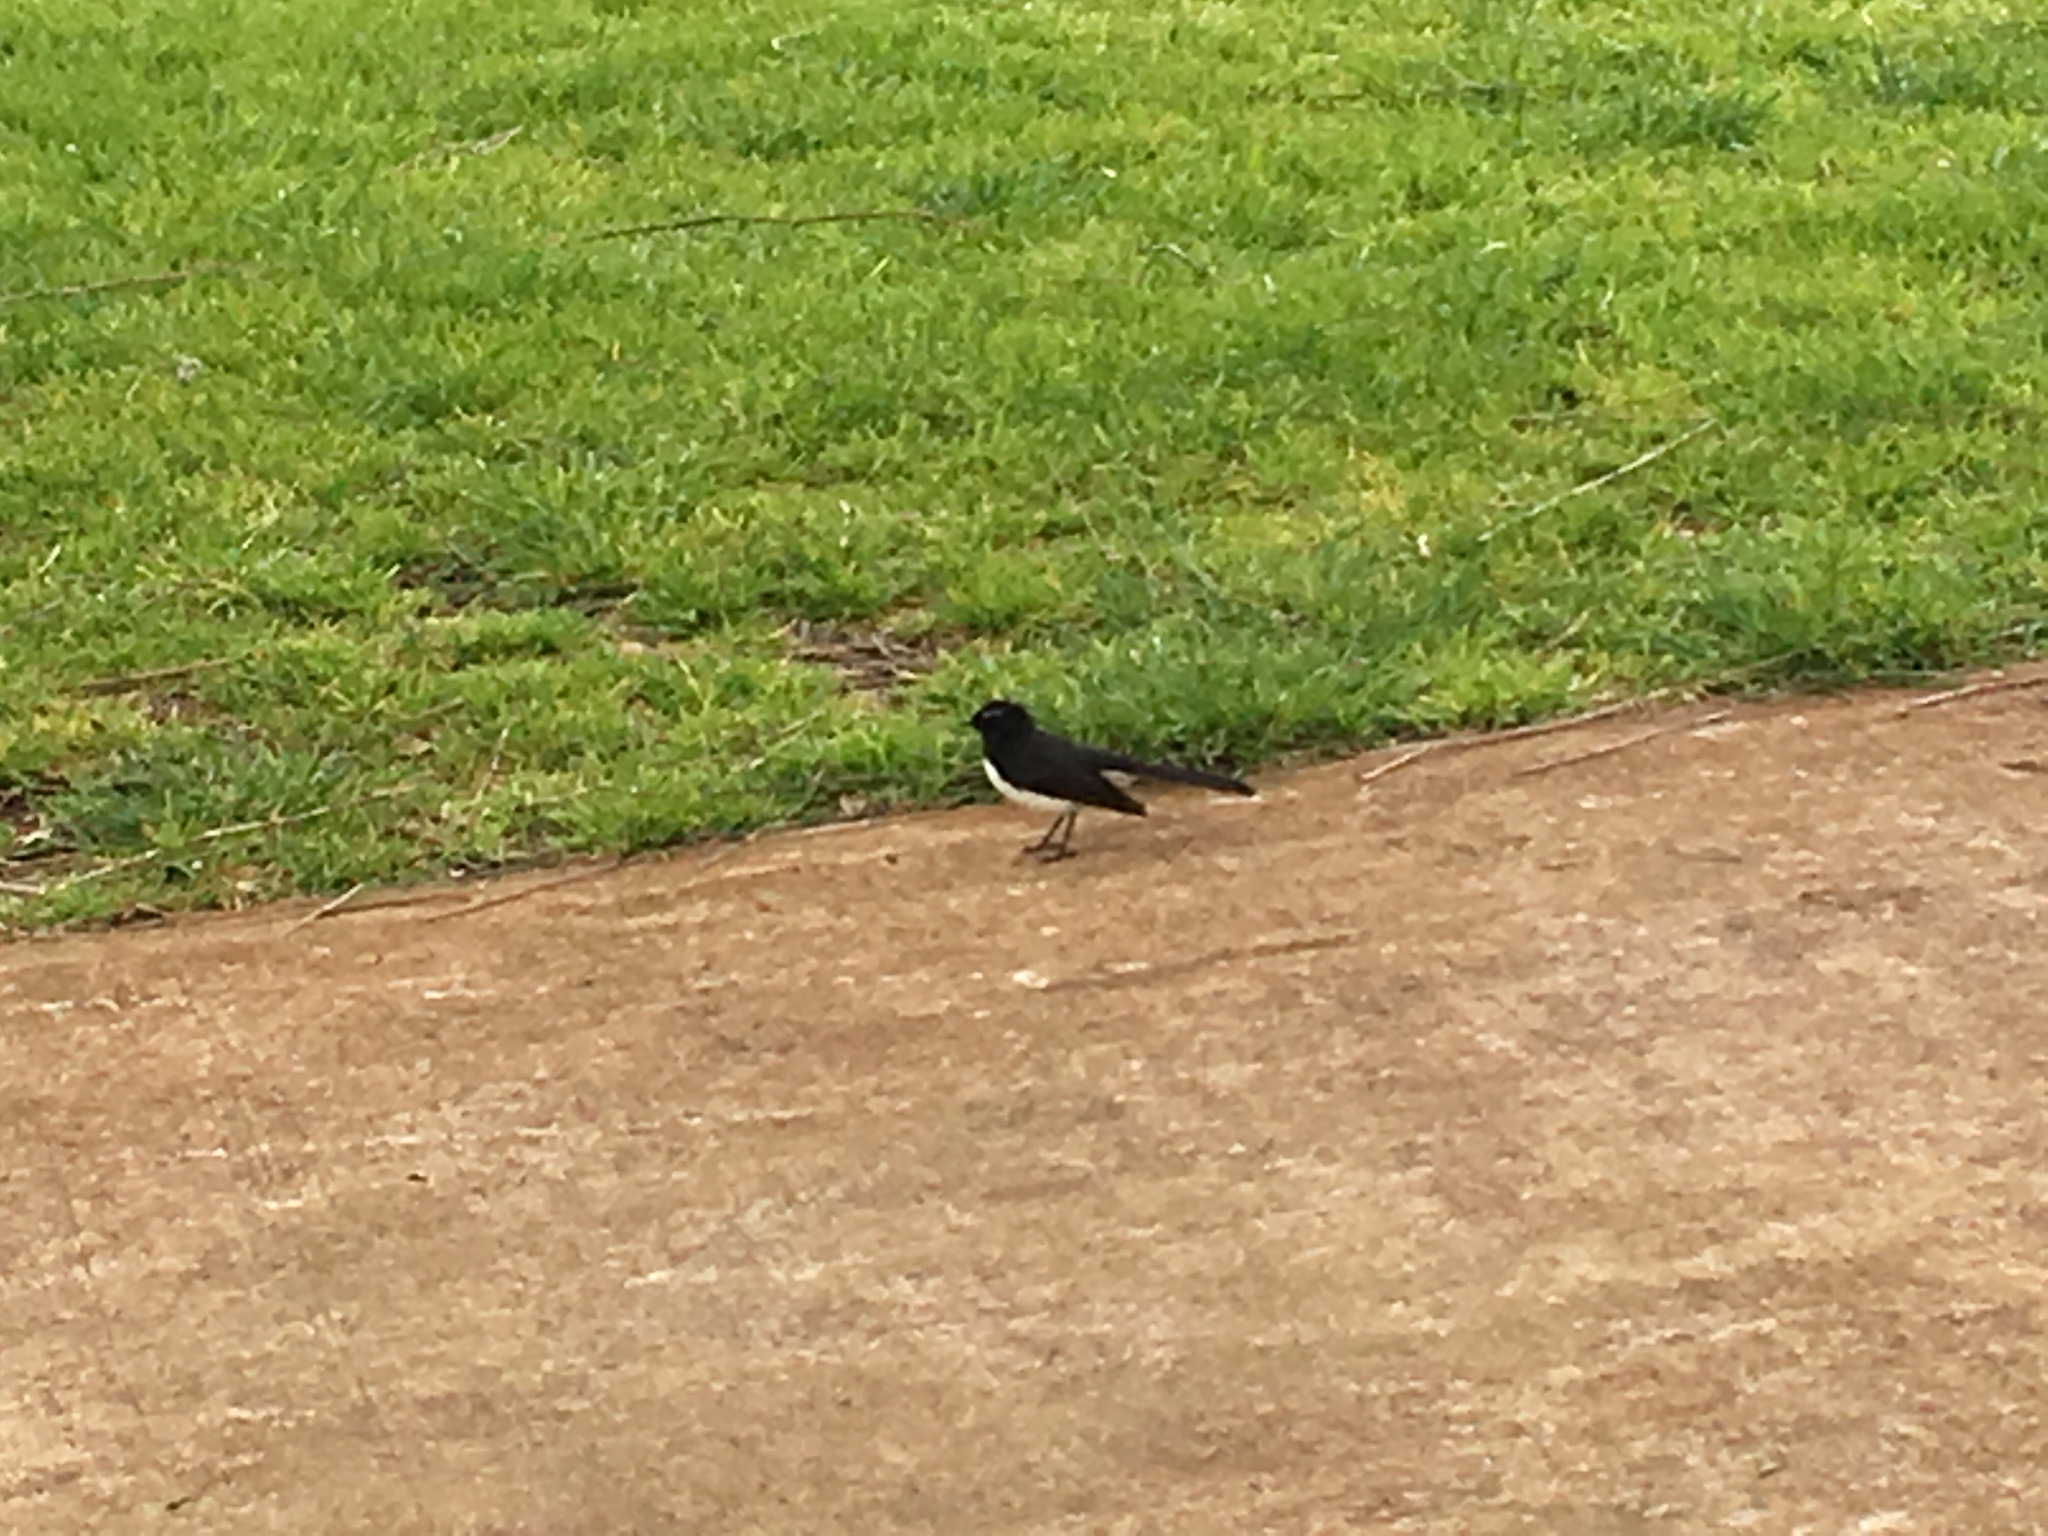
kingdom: Animalia
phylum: Chordata
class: Aves
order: Passeriformes
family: Rhipiduridae
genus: Rhipidura
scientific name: Rhipidura leucophrys
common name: Willie wagtail
